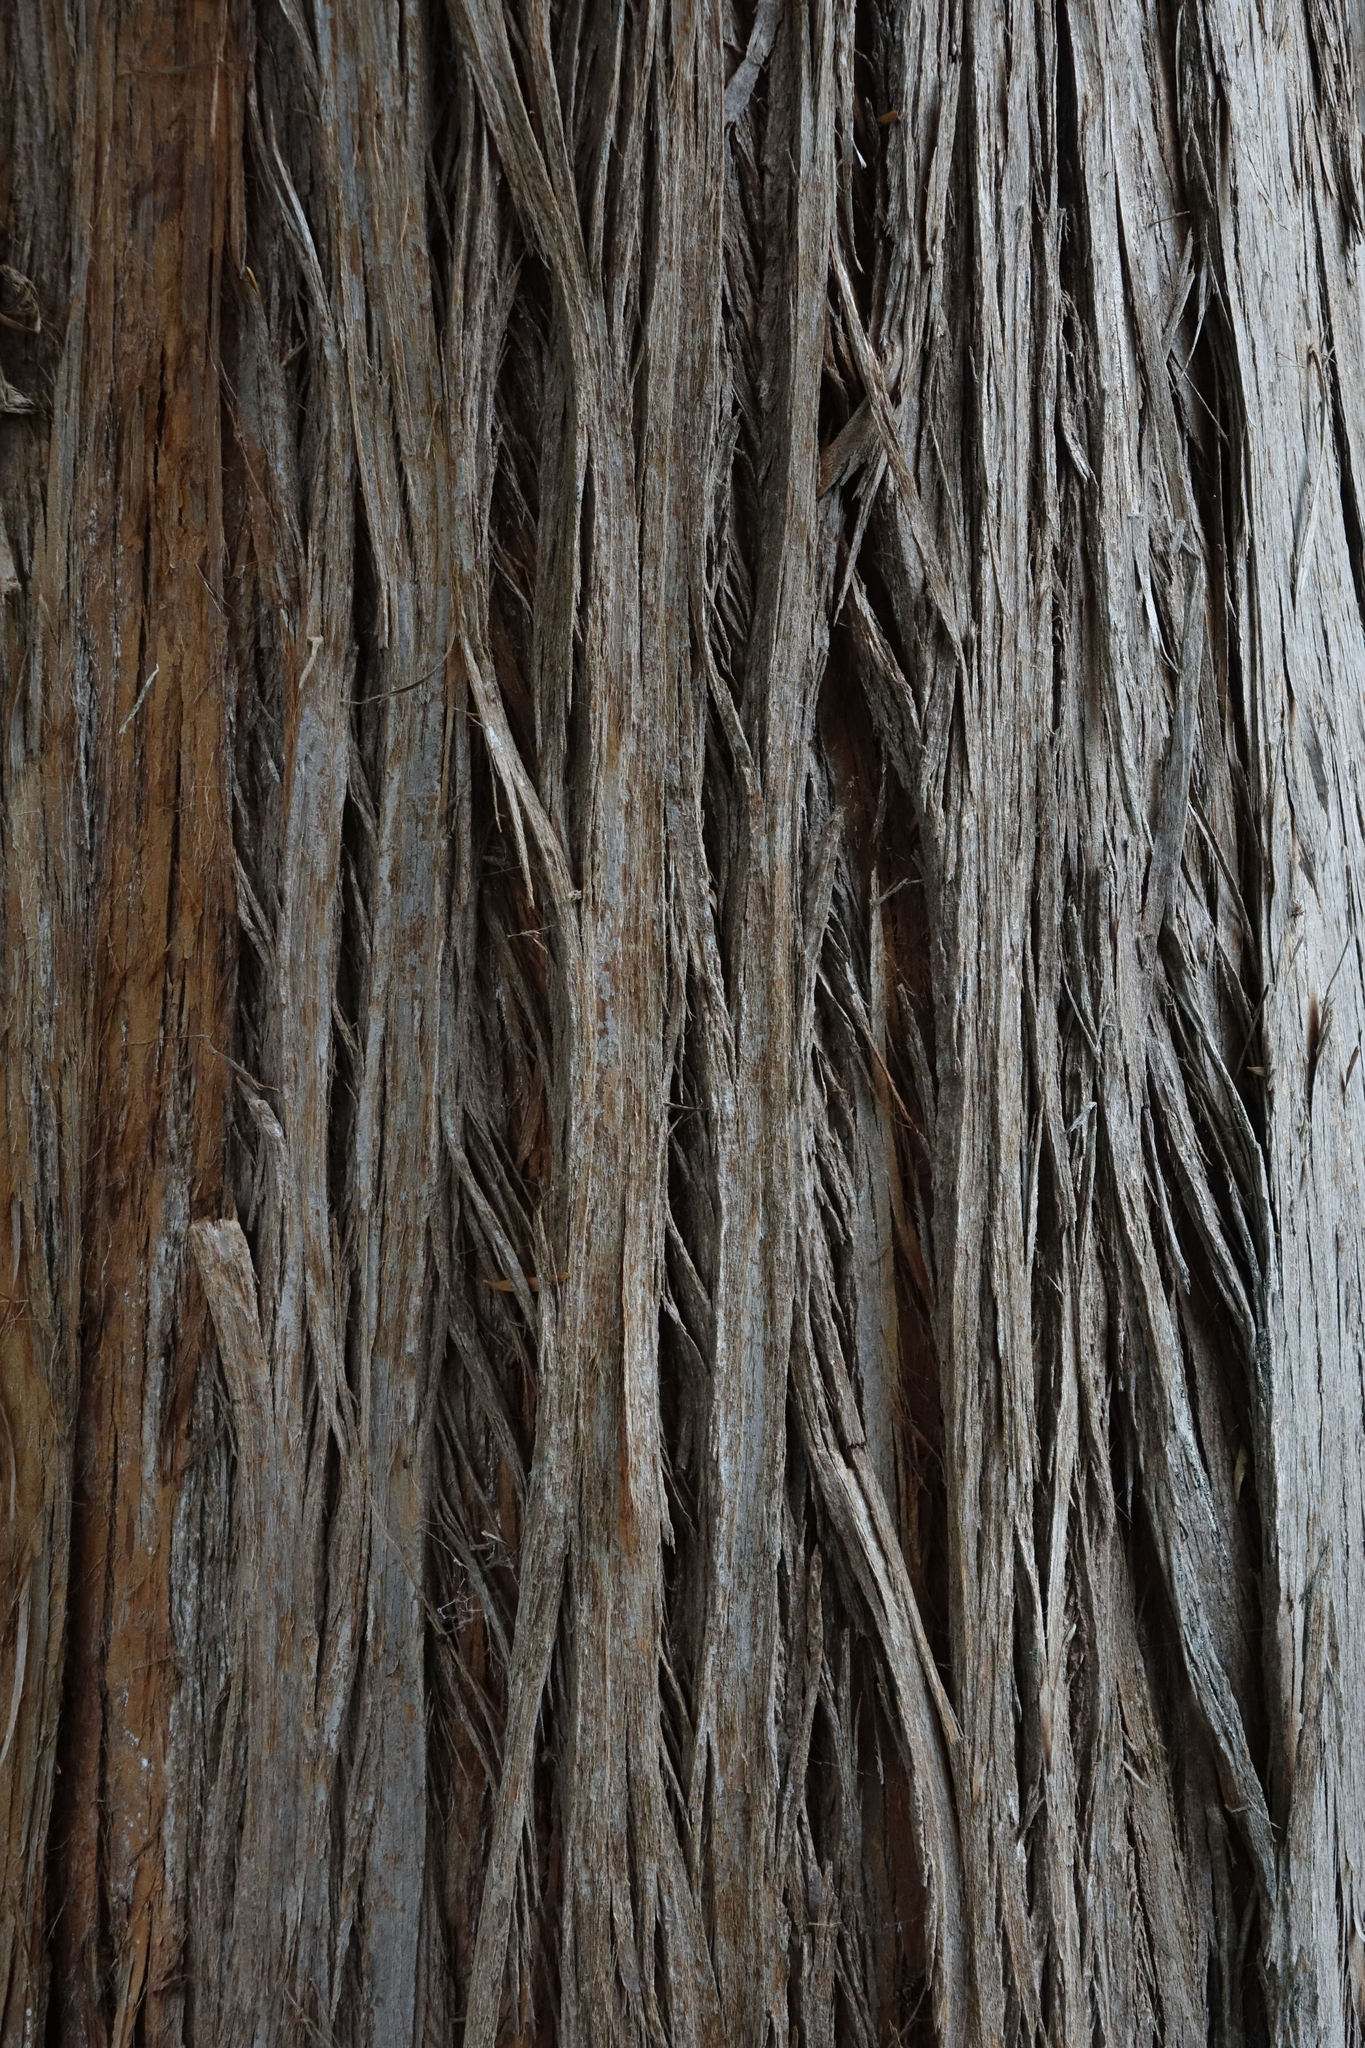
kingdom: Plantae
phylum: Tracheophyta
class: Pinopsida
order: Pinales
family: Podocarpaceae
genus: Podocarpus
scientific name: Podocarpus totara
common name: Totara
